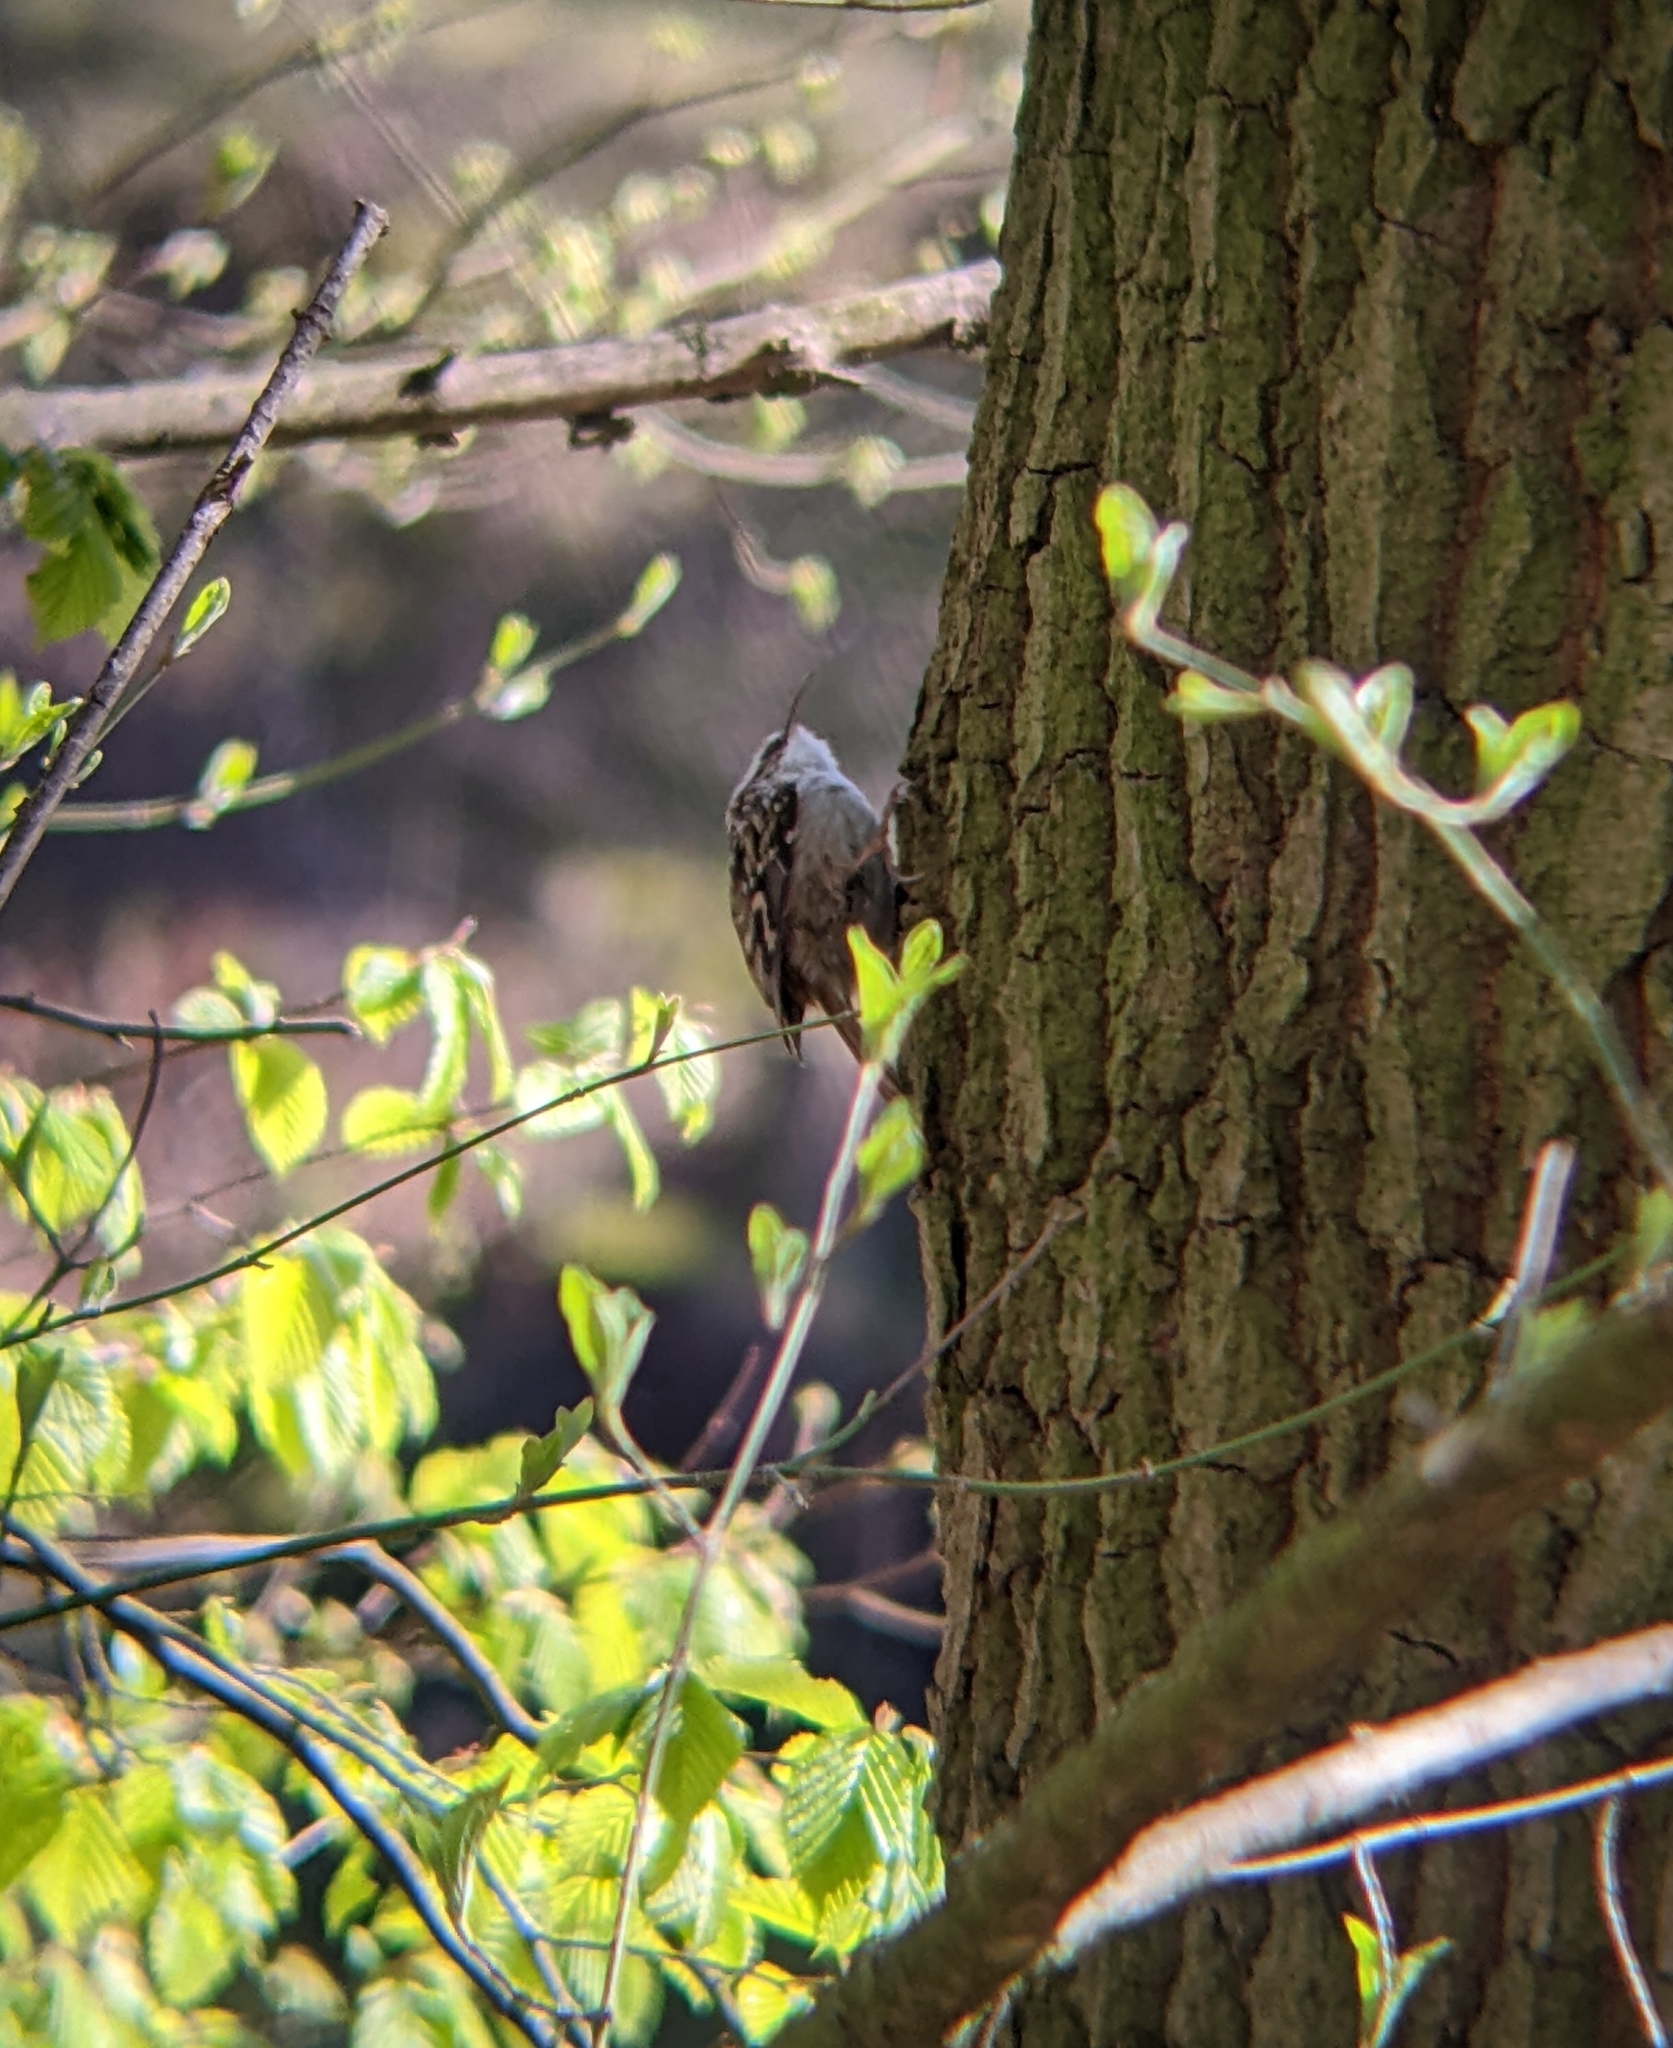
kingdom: Animalia
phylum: Chordata
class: Aves
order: Passeriformes
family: Certhiidae
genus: Certhia
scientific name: Certhia brachydactyla
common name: Short-toed treecreeper
